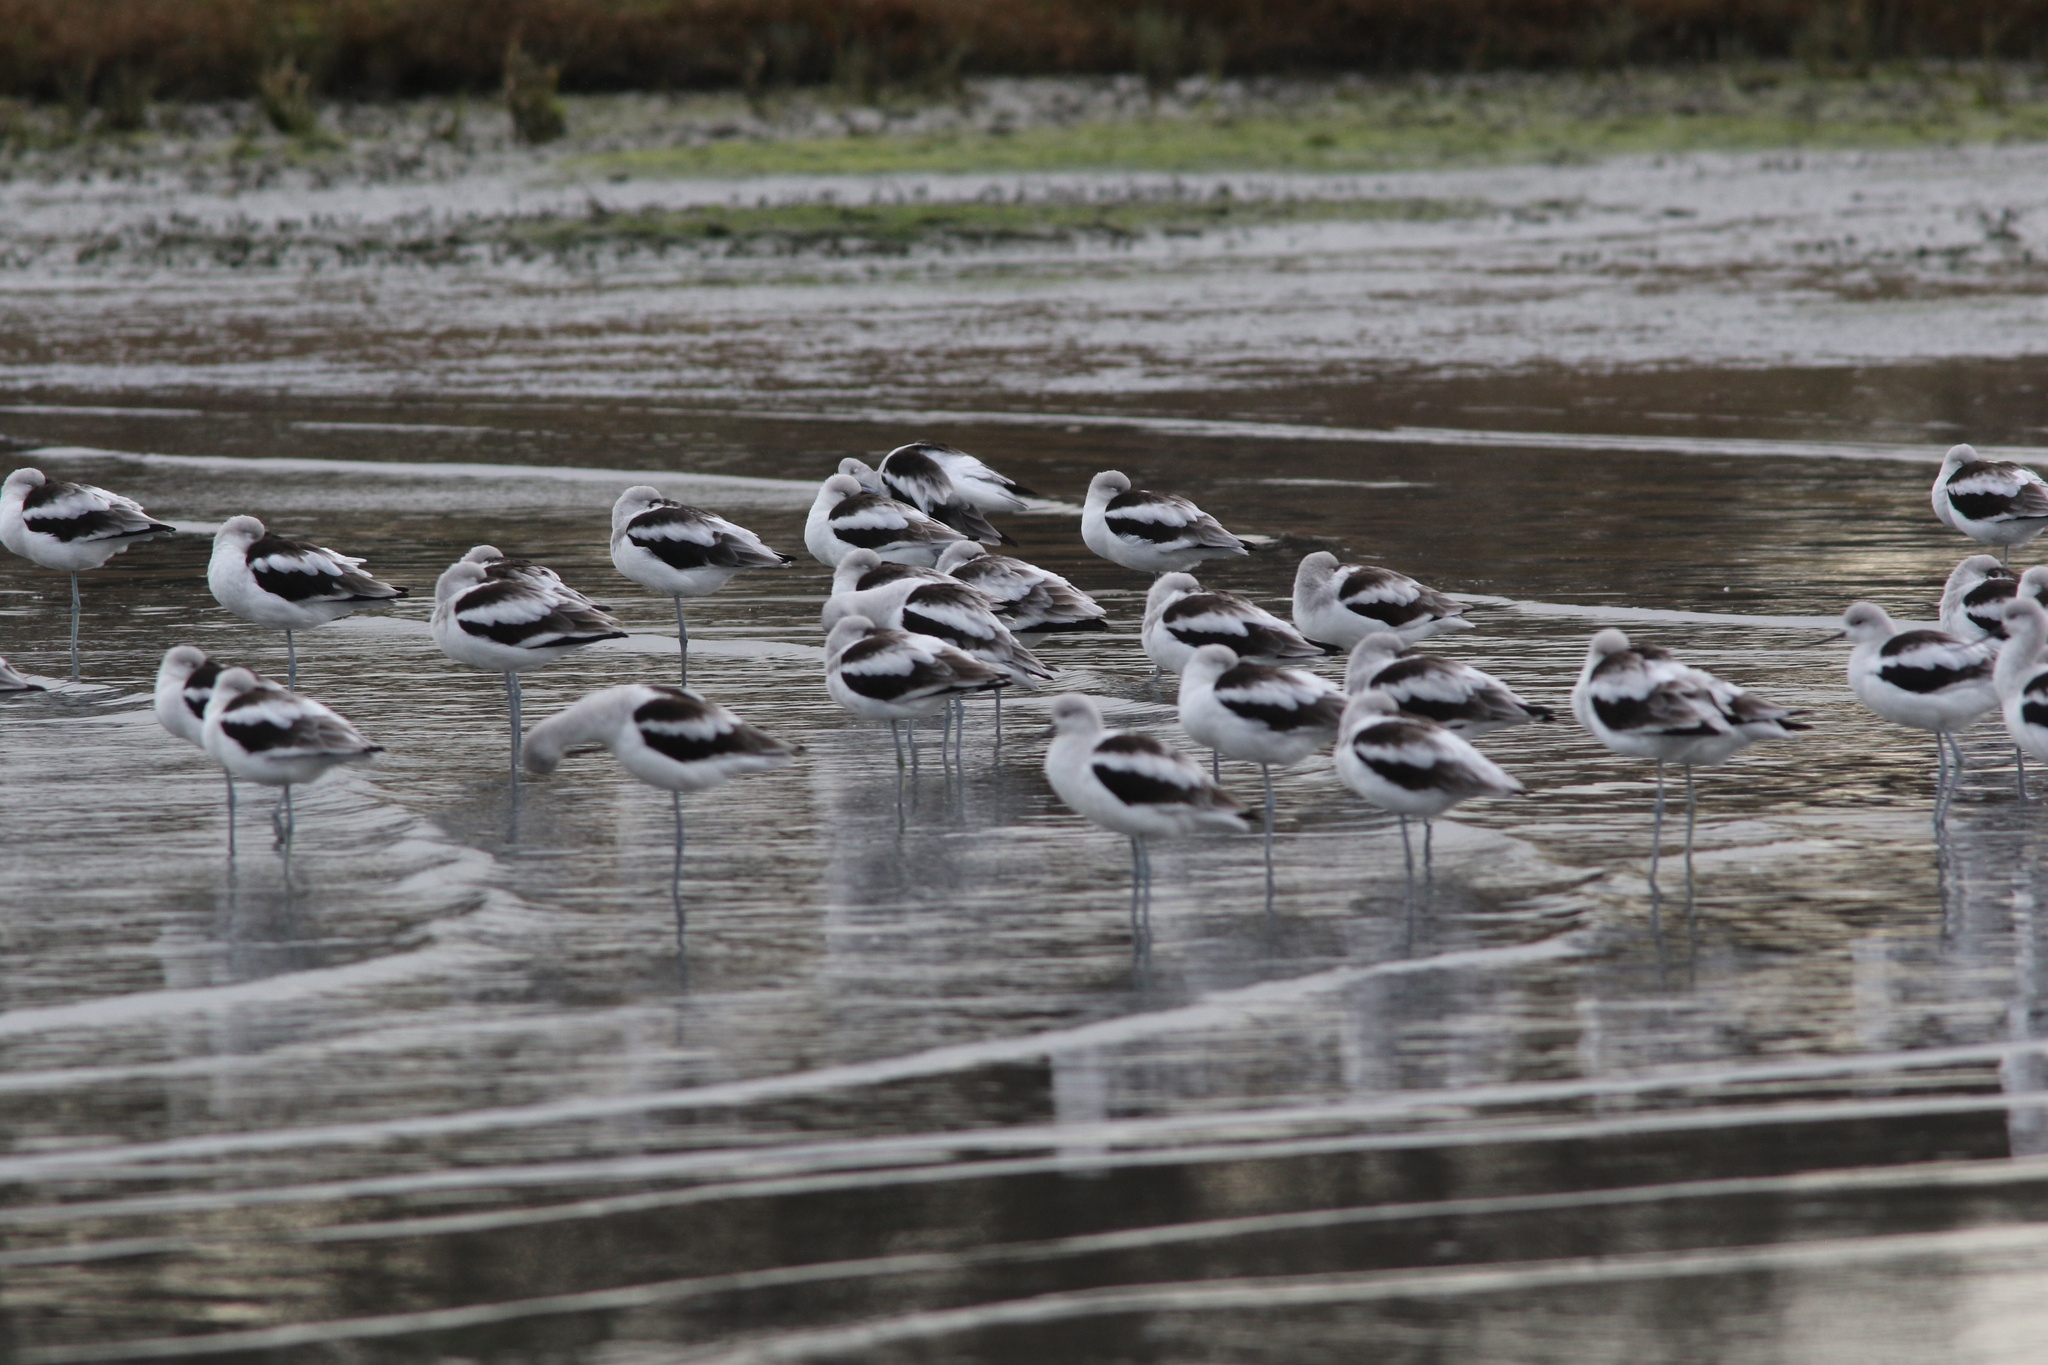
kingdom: Animalia
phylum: Chordata
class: Aves
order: Charadriiformes
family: Recurvirostridae
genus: Recurvirostra
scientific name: Recurvirostra americana
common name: American avocet
